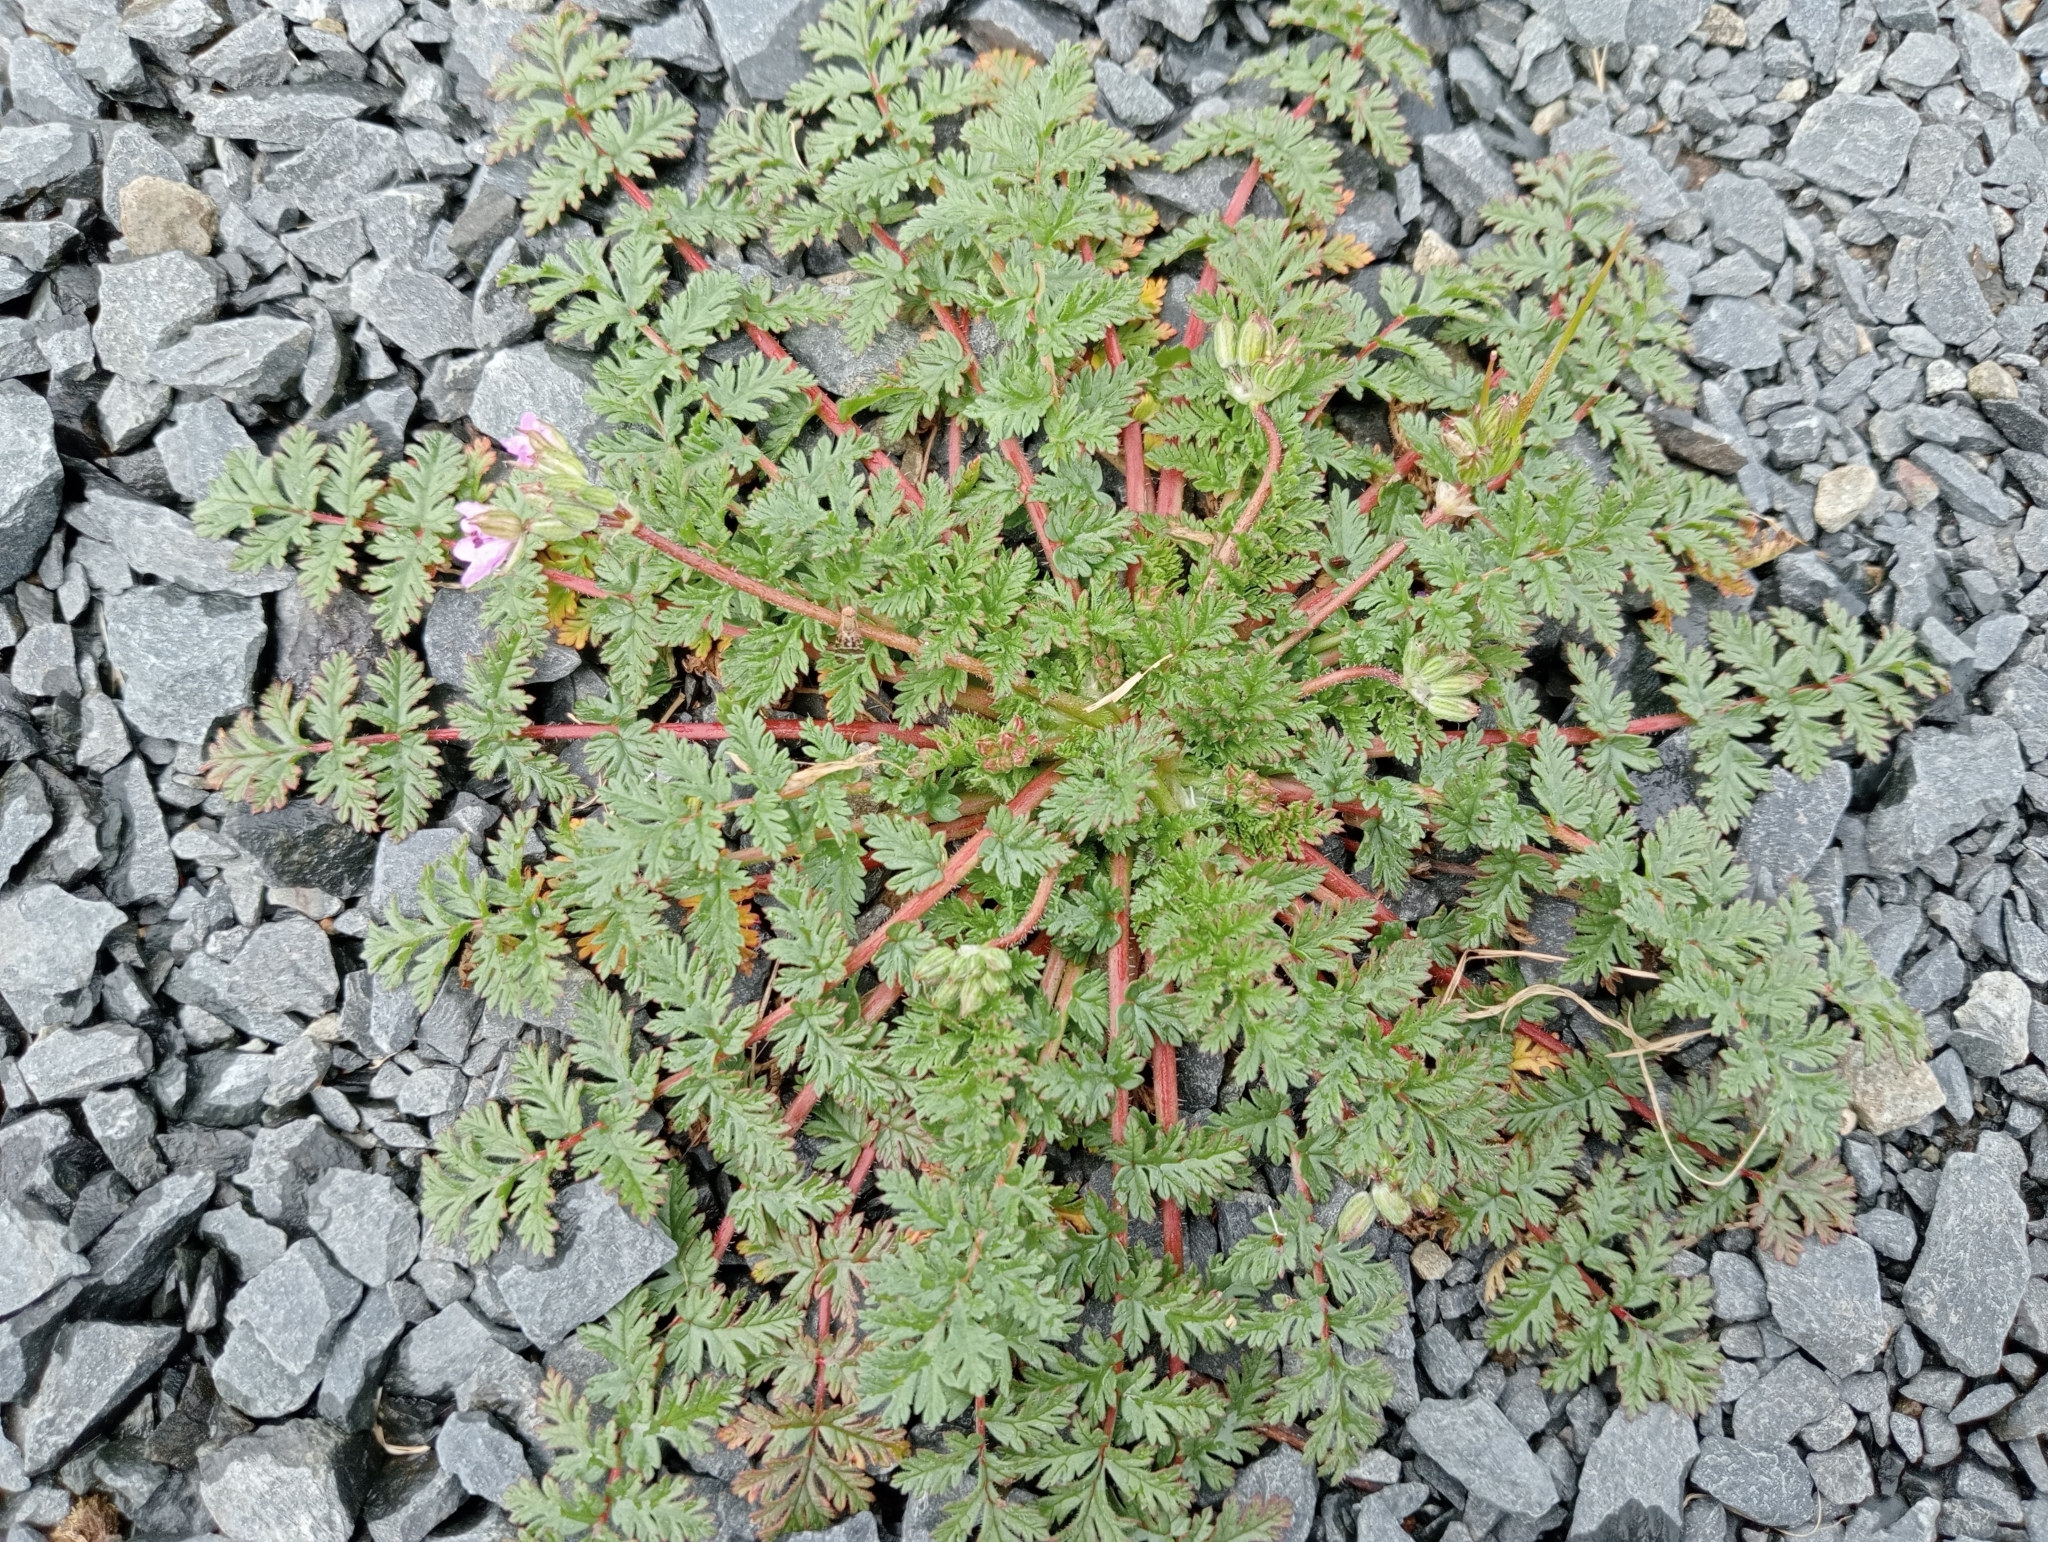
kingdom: Plantae
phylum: Tracheophyta
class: Magnoliopsida
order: Geraniales
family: Geraniaceae
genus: Erodium
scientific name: Erodium cicutarium
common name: Common stork's-bill
